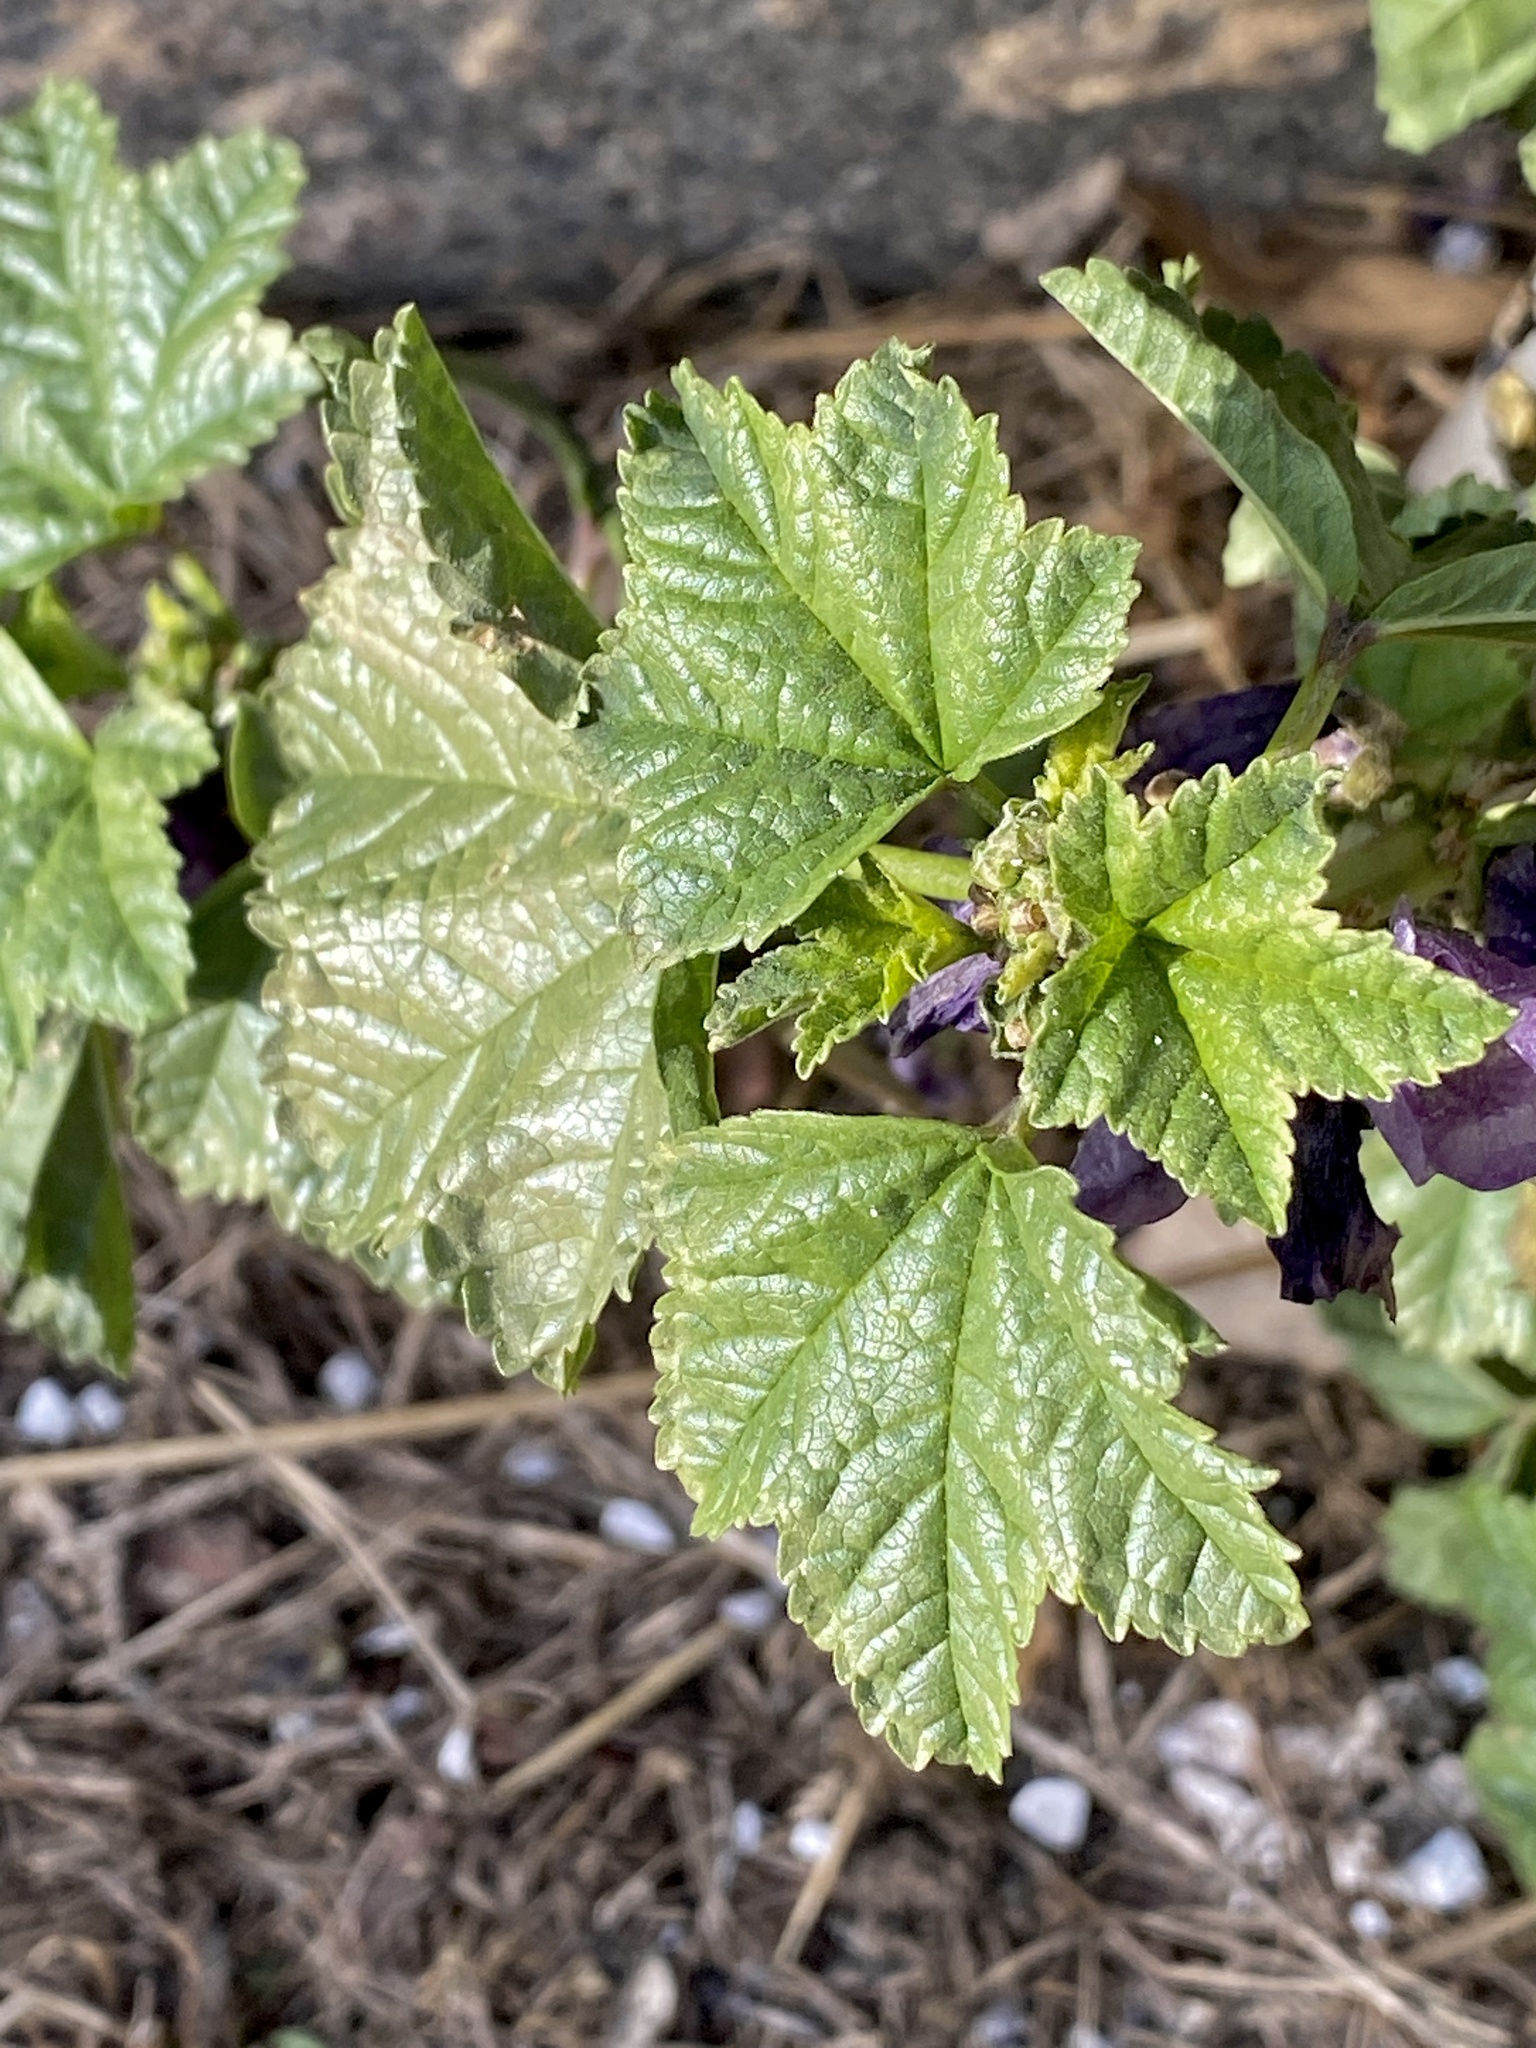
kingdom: Plantae
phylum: Tracheophyta
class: Magnoliopsida
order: Malvales
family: Malvaceae
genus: Malva
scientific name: Malva sylvestris
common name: Common mallow
